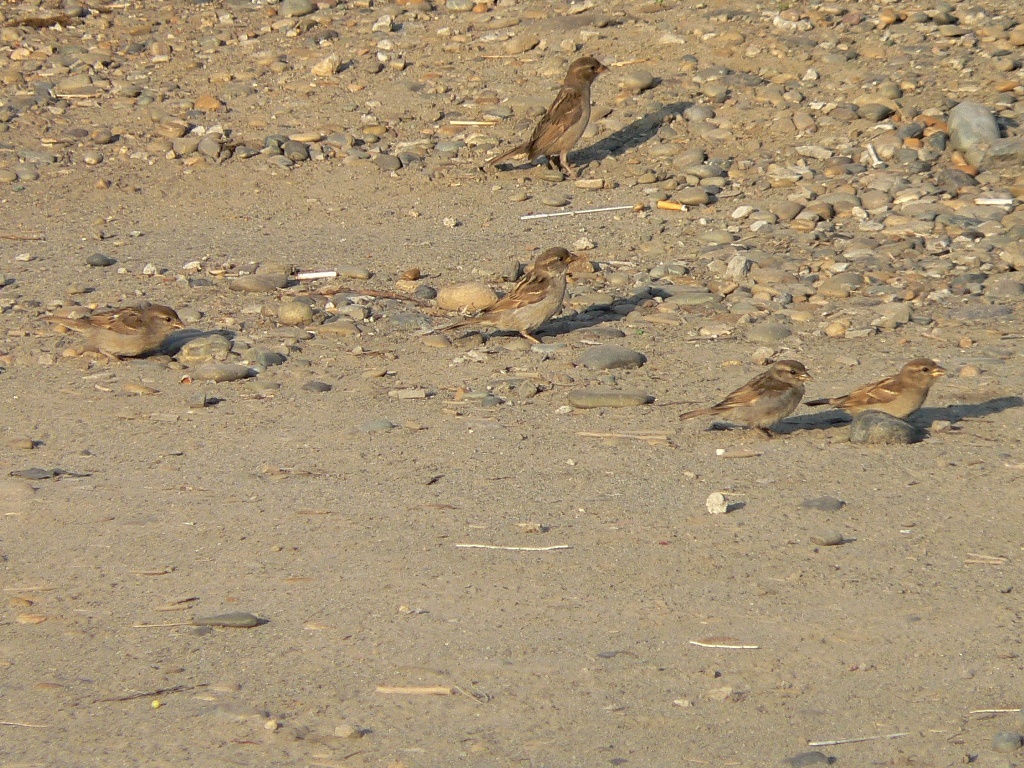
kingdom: Animalia
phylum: Chordata
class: Aves
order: Passeriformes
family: Passeridae
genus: Passer
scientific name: Passer domesticus
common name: House sparrow
